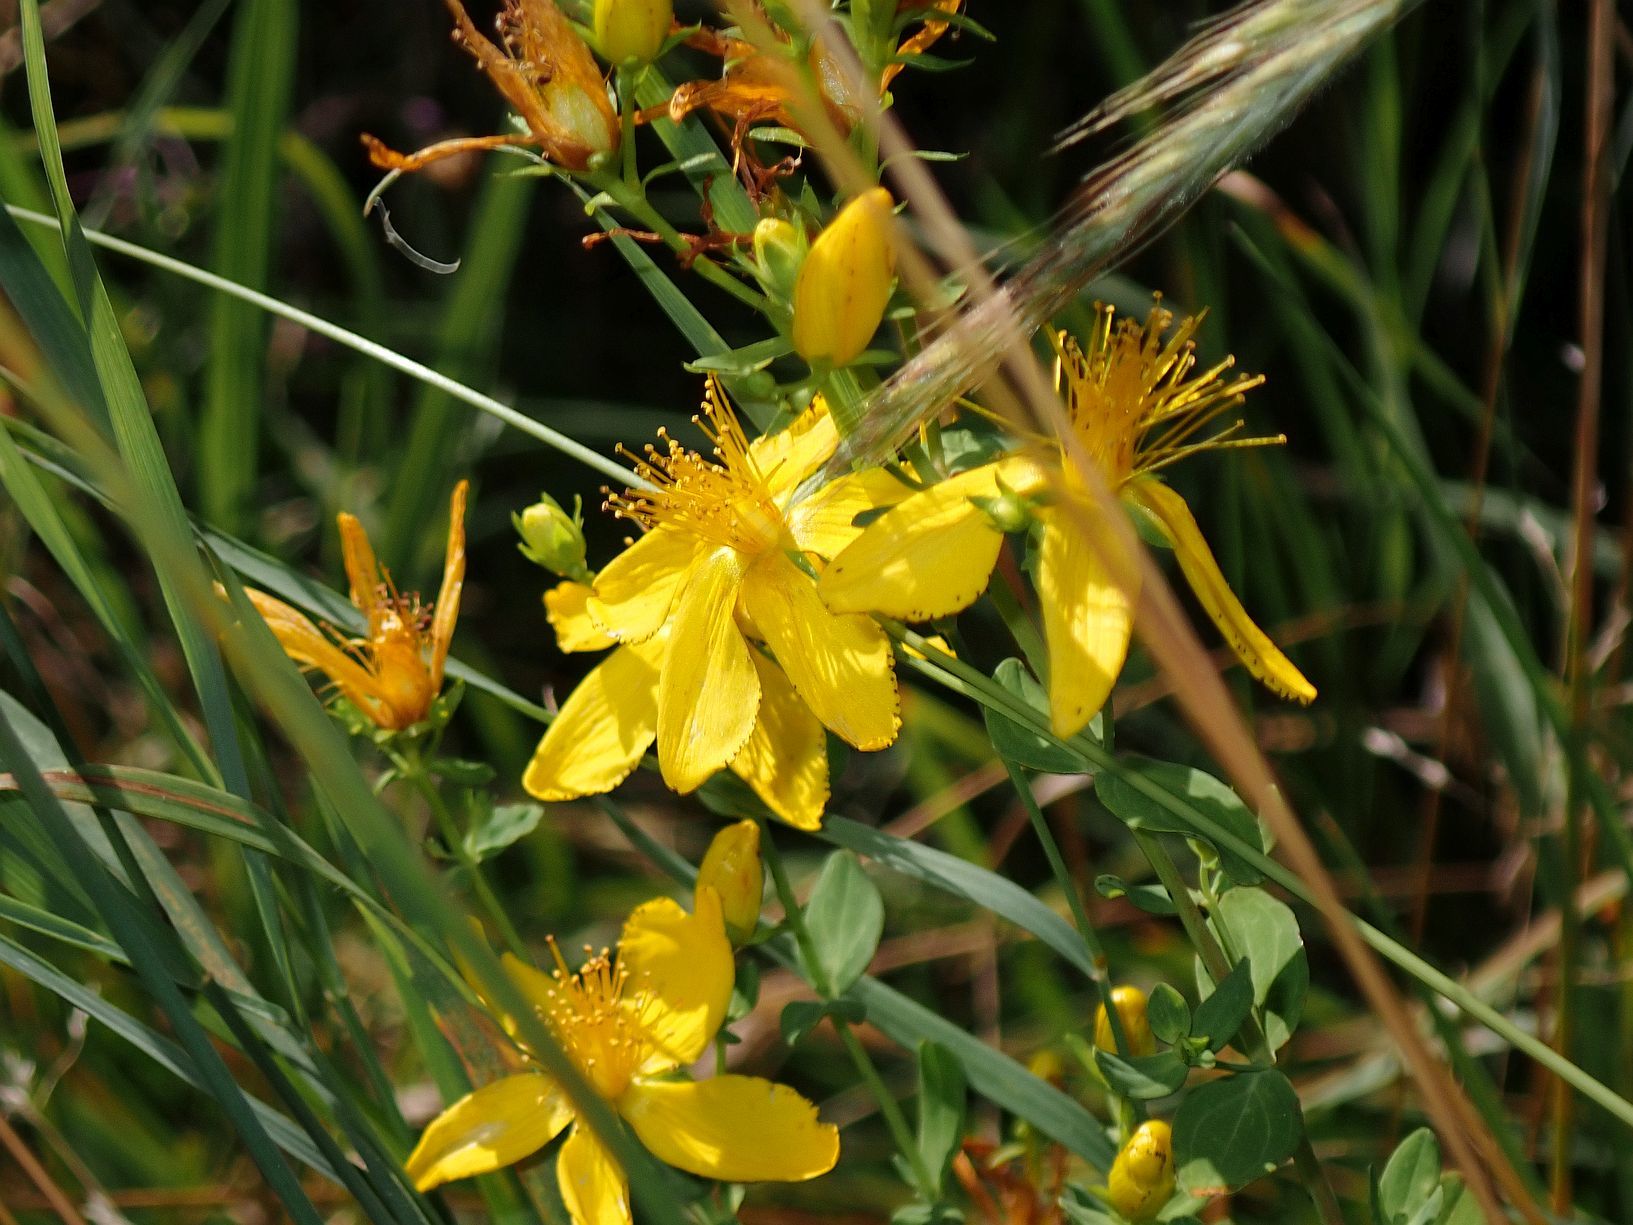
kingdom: Plantae
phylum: Tracheophyta
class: Magnoliopsida
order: Malpighiales
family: Hypericaceae
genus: Hypericum
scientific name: Hypericum perforatum
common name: Common st. johnswort
